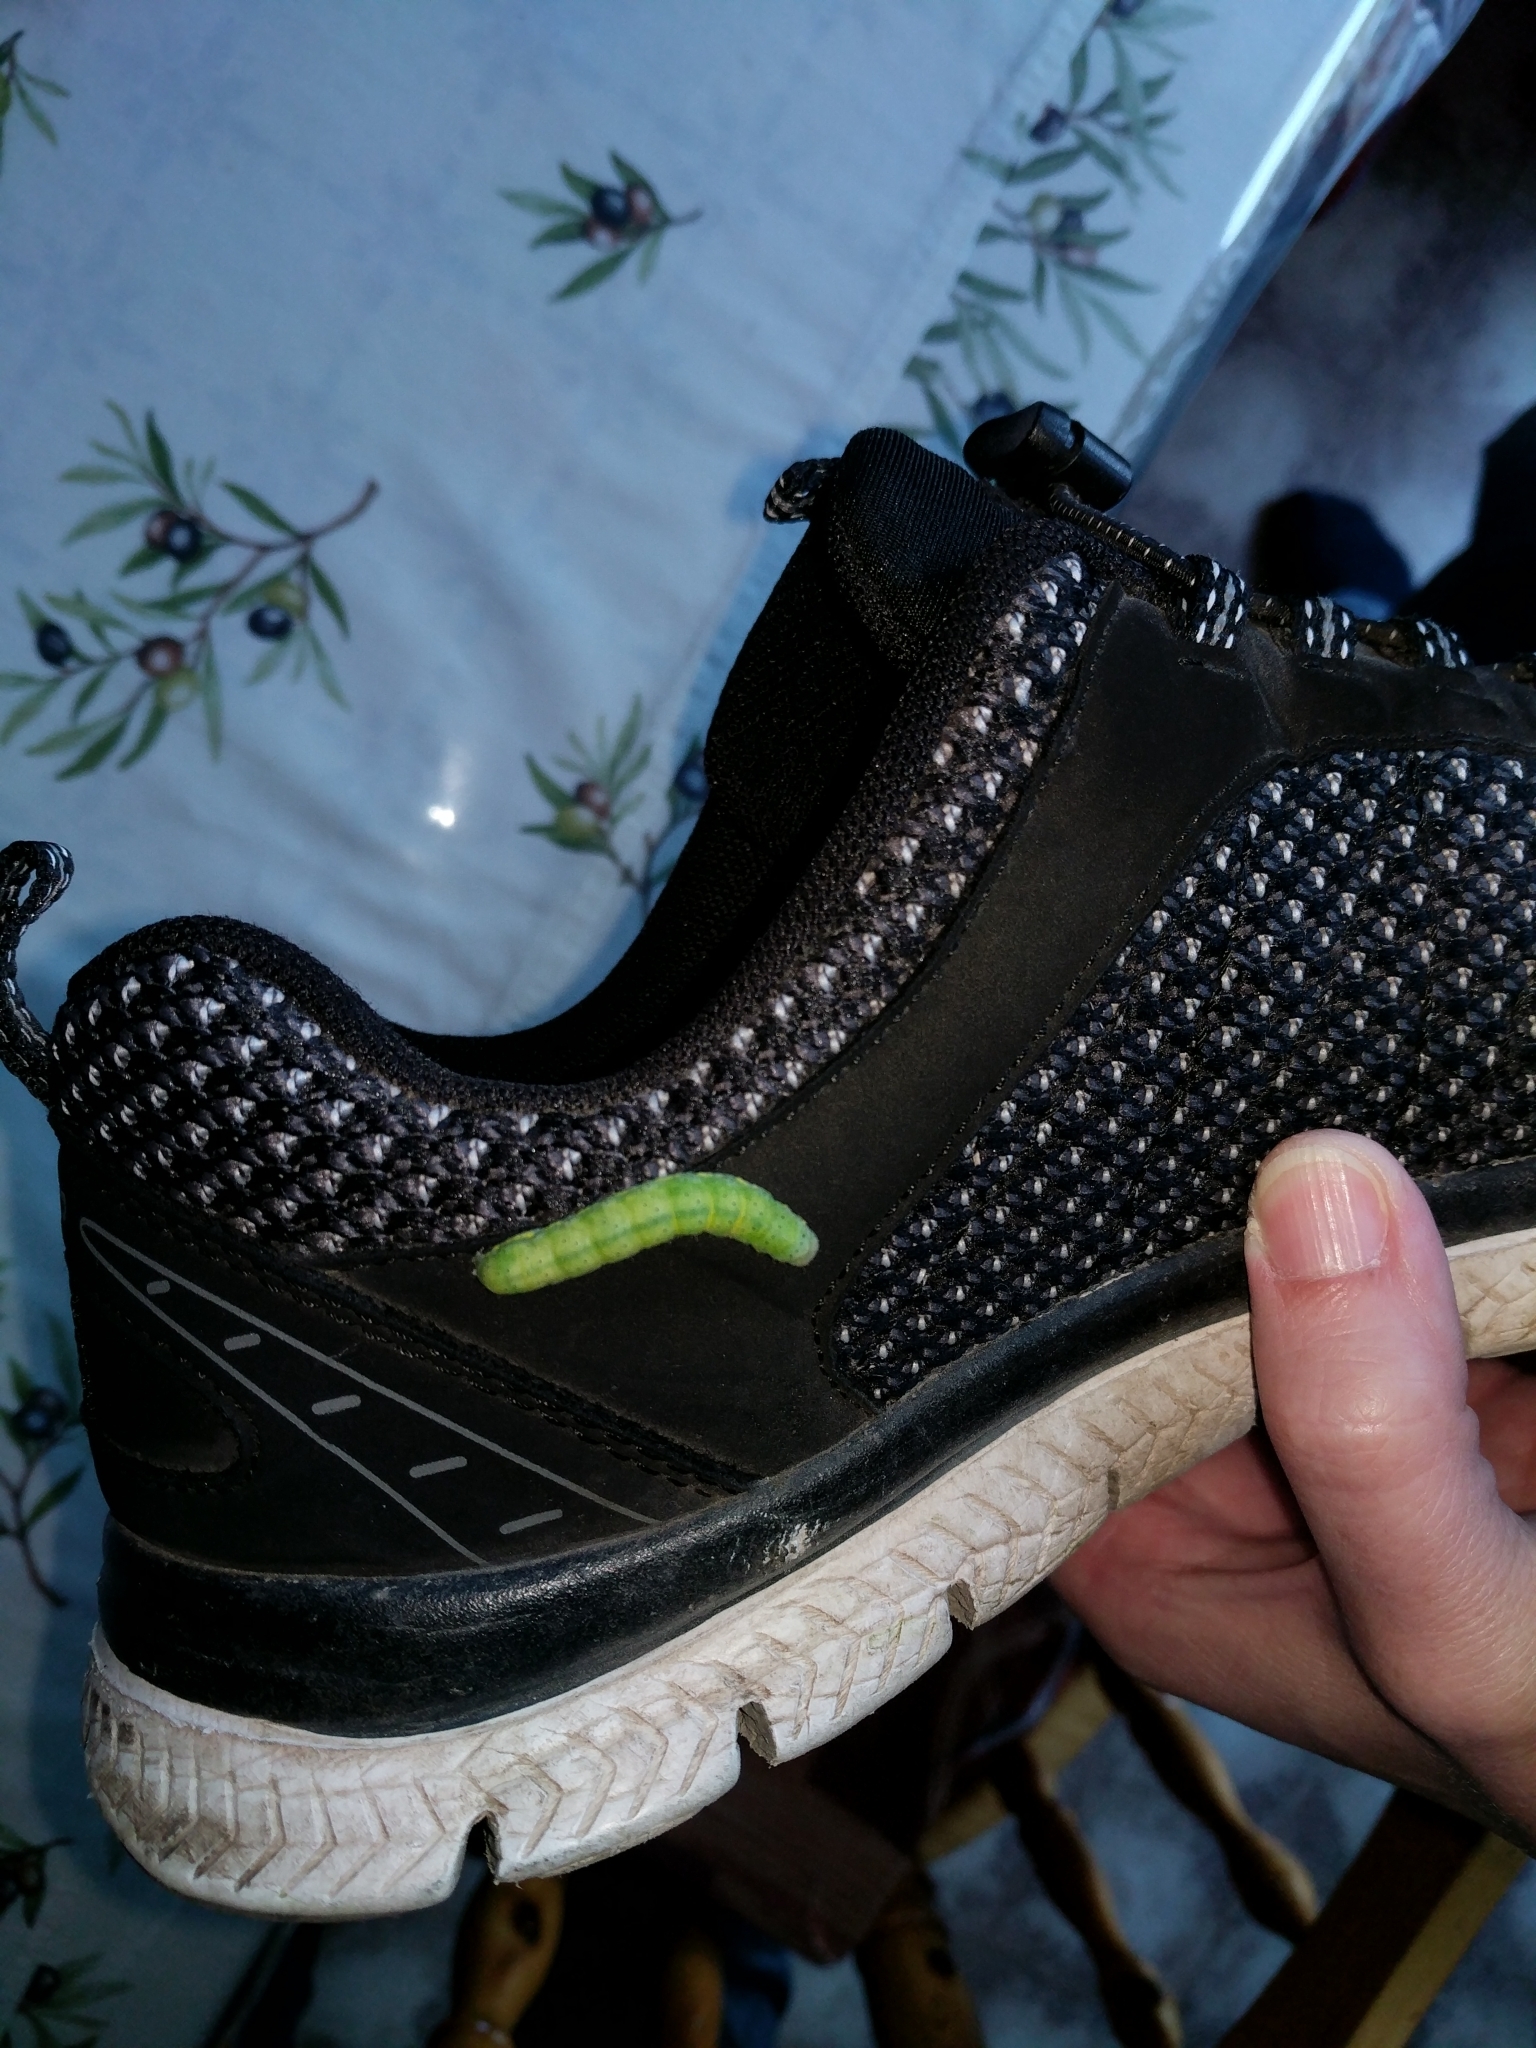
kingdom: Animalia
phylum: Arthropoda
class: Insecta
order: Lepidoptera
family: Noctuidae
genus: Phlogophora
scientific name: Phlogophora meticulosa
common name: Angle shades
